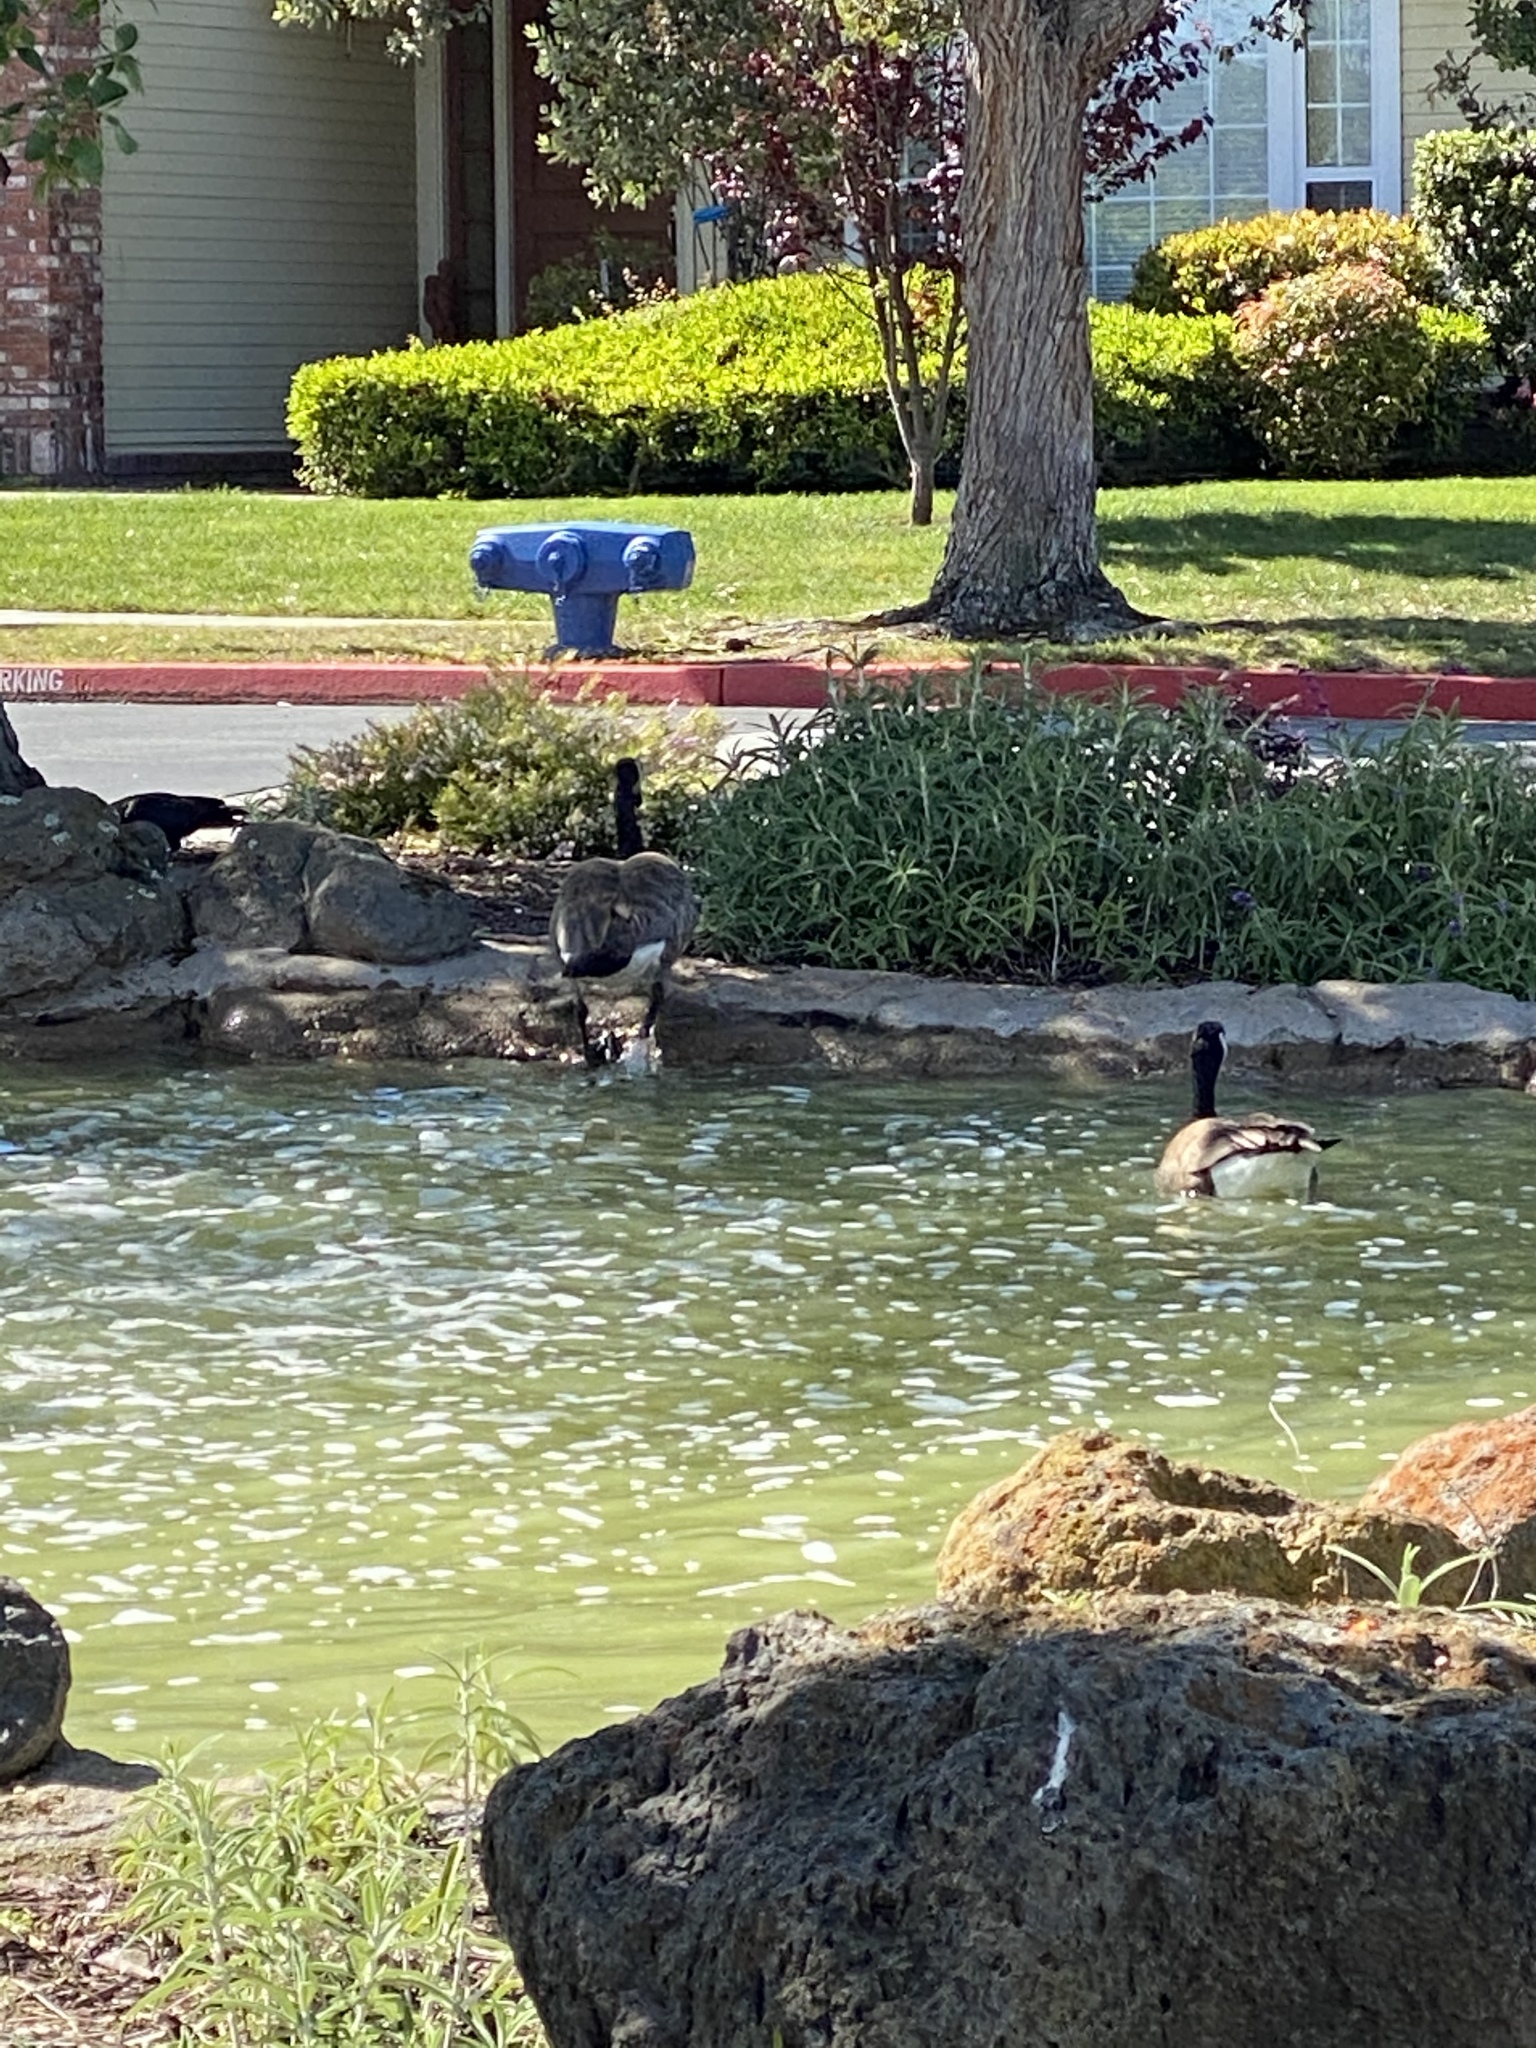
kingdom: Animalia
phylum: Chordata
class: Aves
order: Anseriformes
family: Anatidae
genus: Branta
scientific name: Branta canadensis
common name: Canada goose
